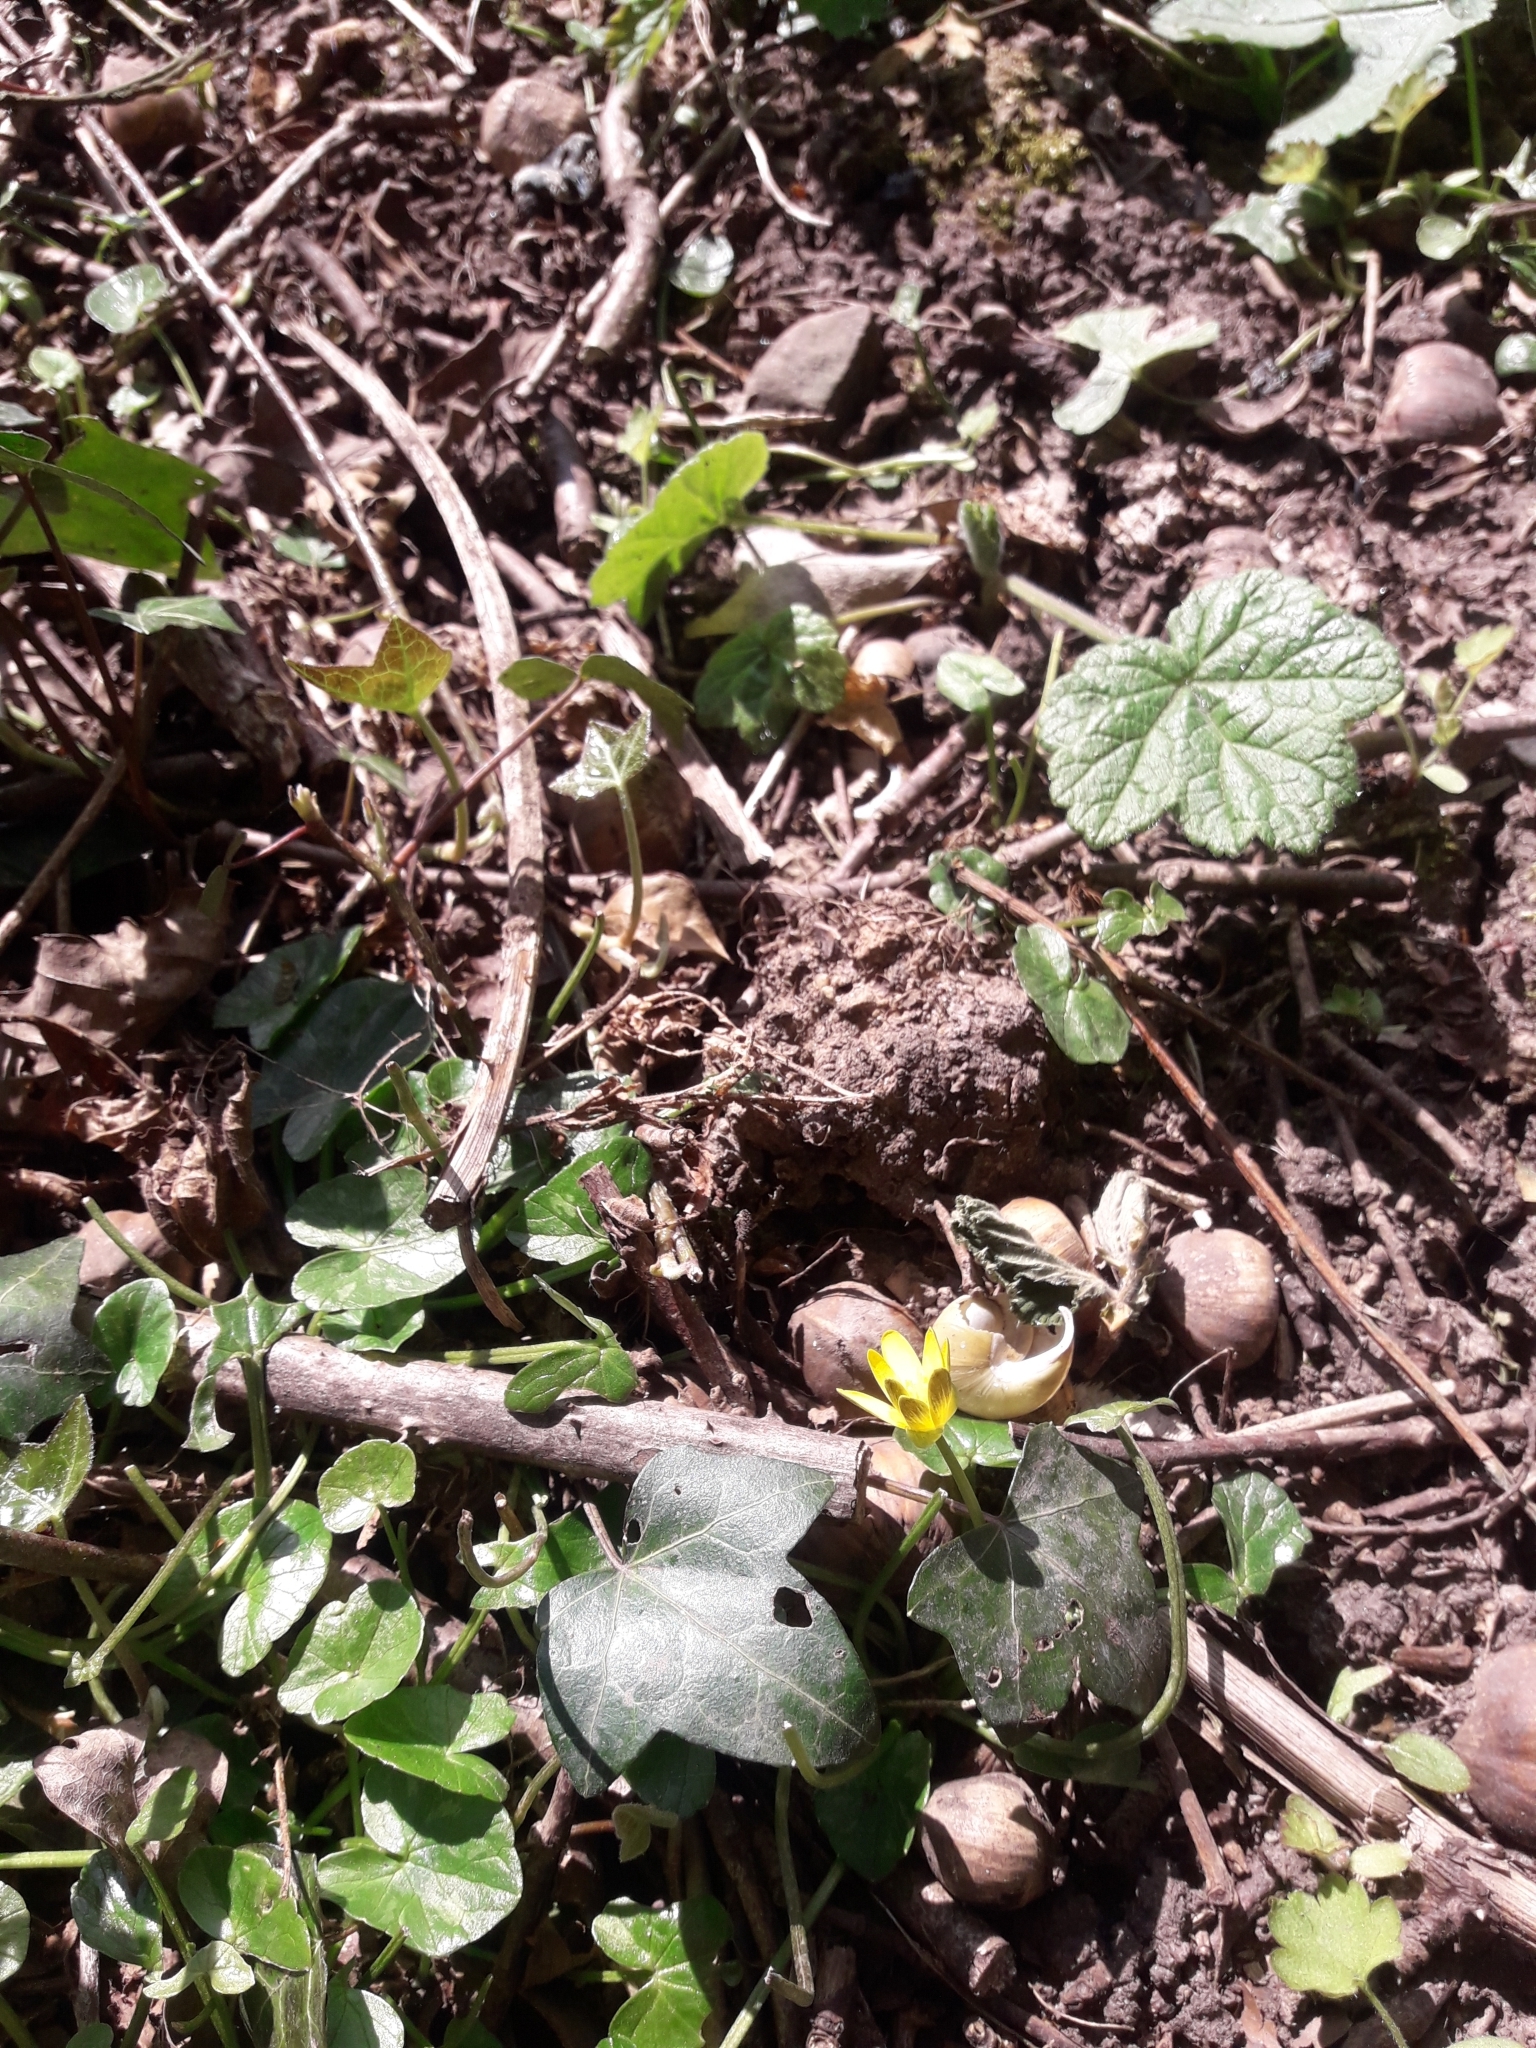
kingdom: Plantae
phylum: Tracheophyta
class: Magnoliopsida
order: Ranunculales
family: Ranunculaceae
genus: Ficaria
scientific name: Ficaria verna
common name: Lesser celandine
